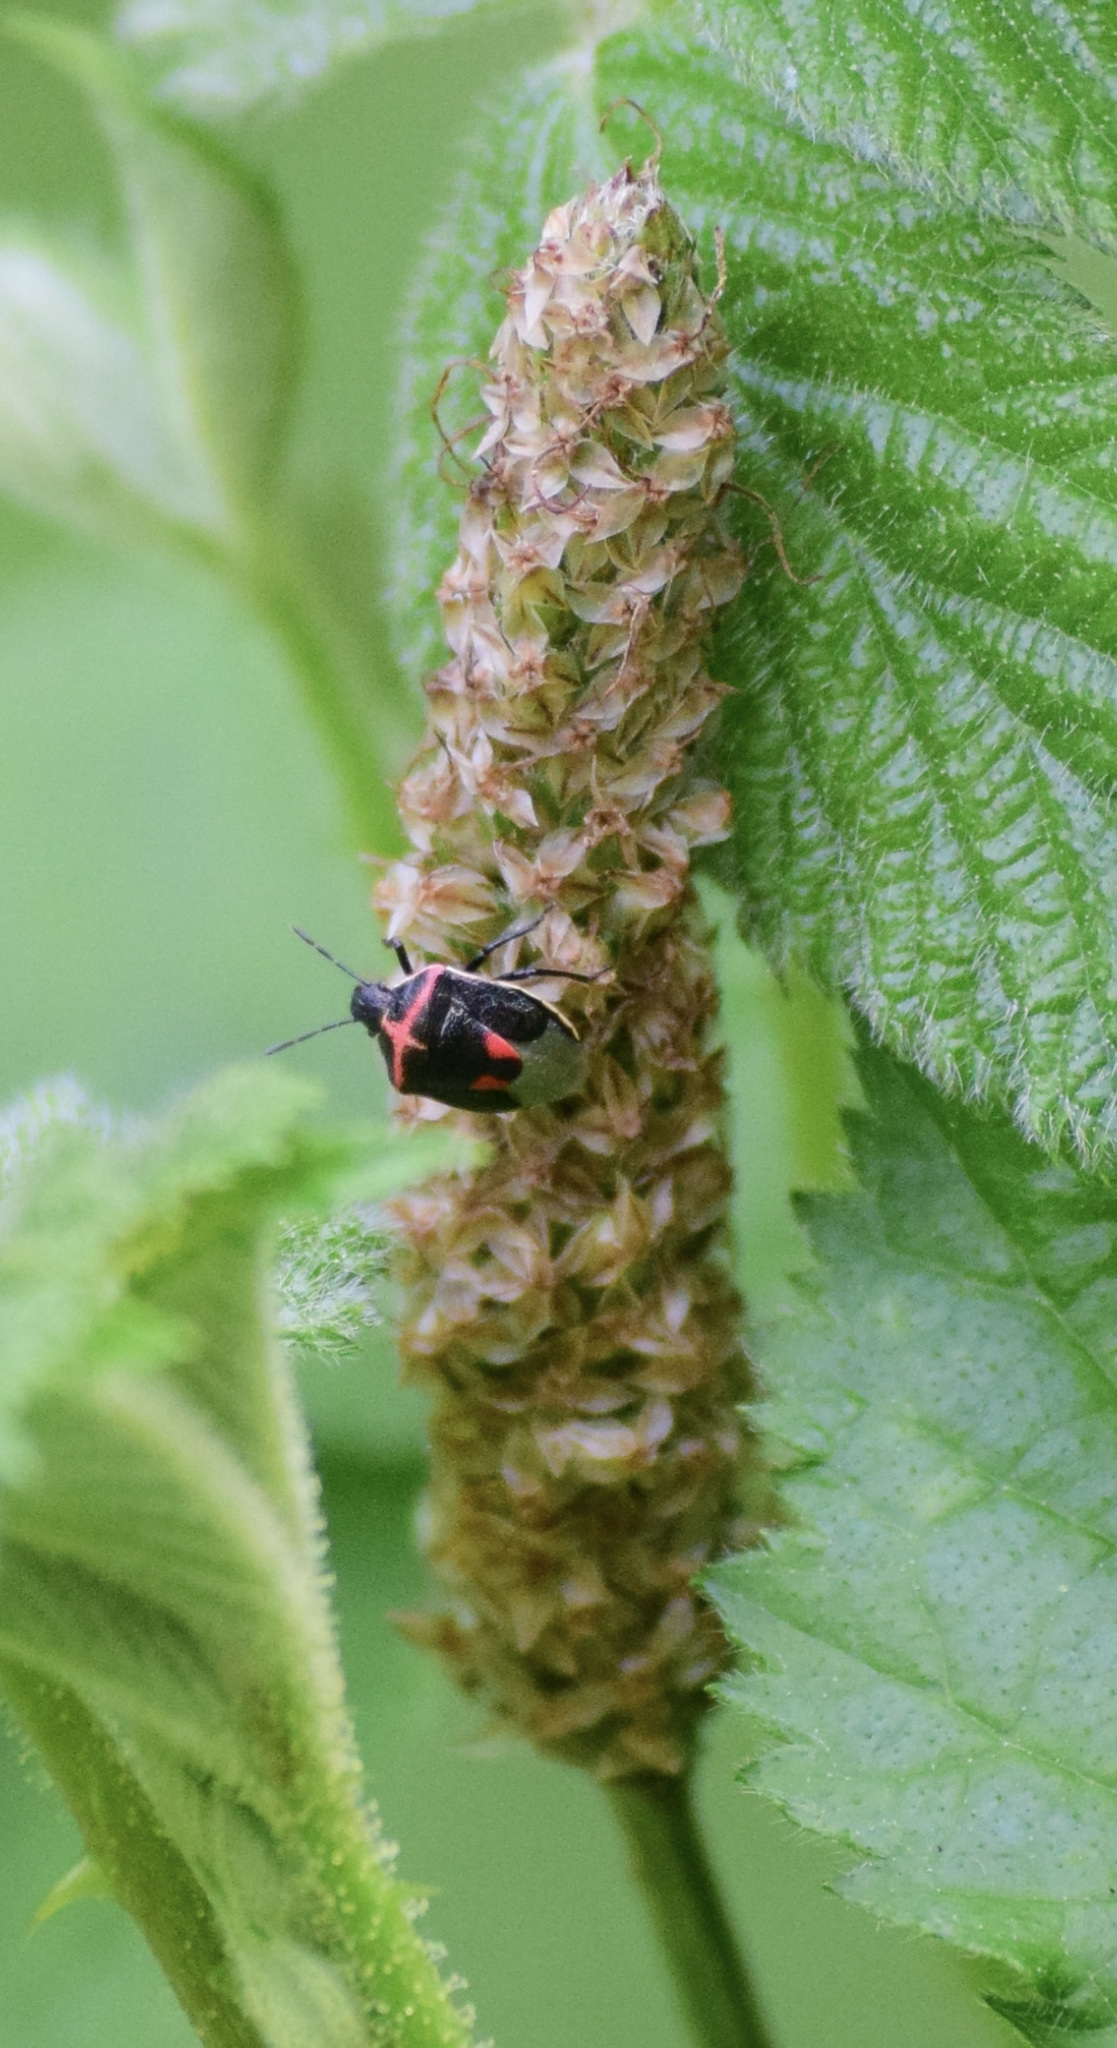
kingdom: Animalia
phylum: Arthropoda
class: Insecta
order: Hemiptera
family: Pentatomidae
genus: Cosmopepla
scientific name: Cosmopepla lintneriana
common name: Twice-stabbed stink bug
